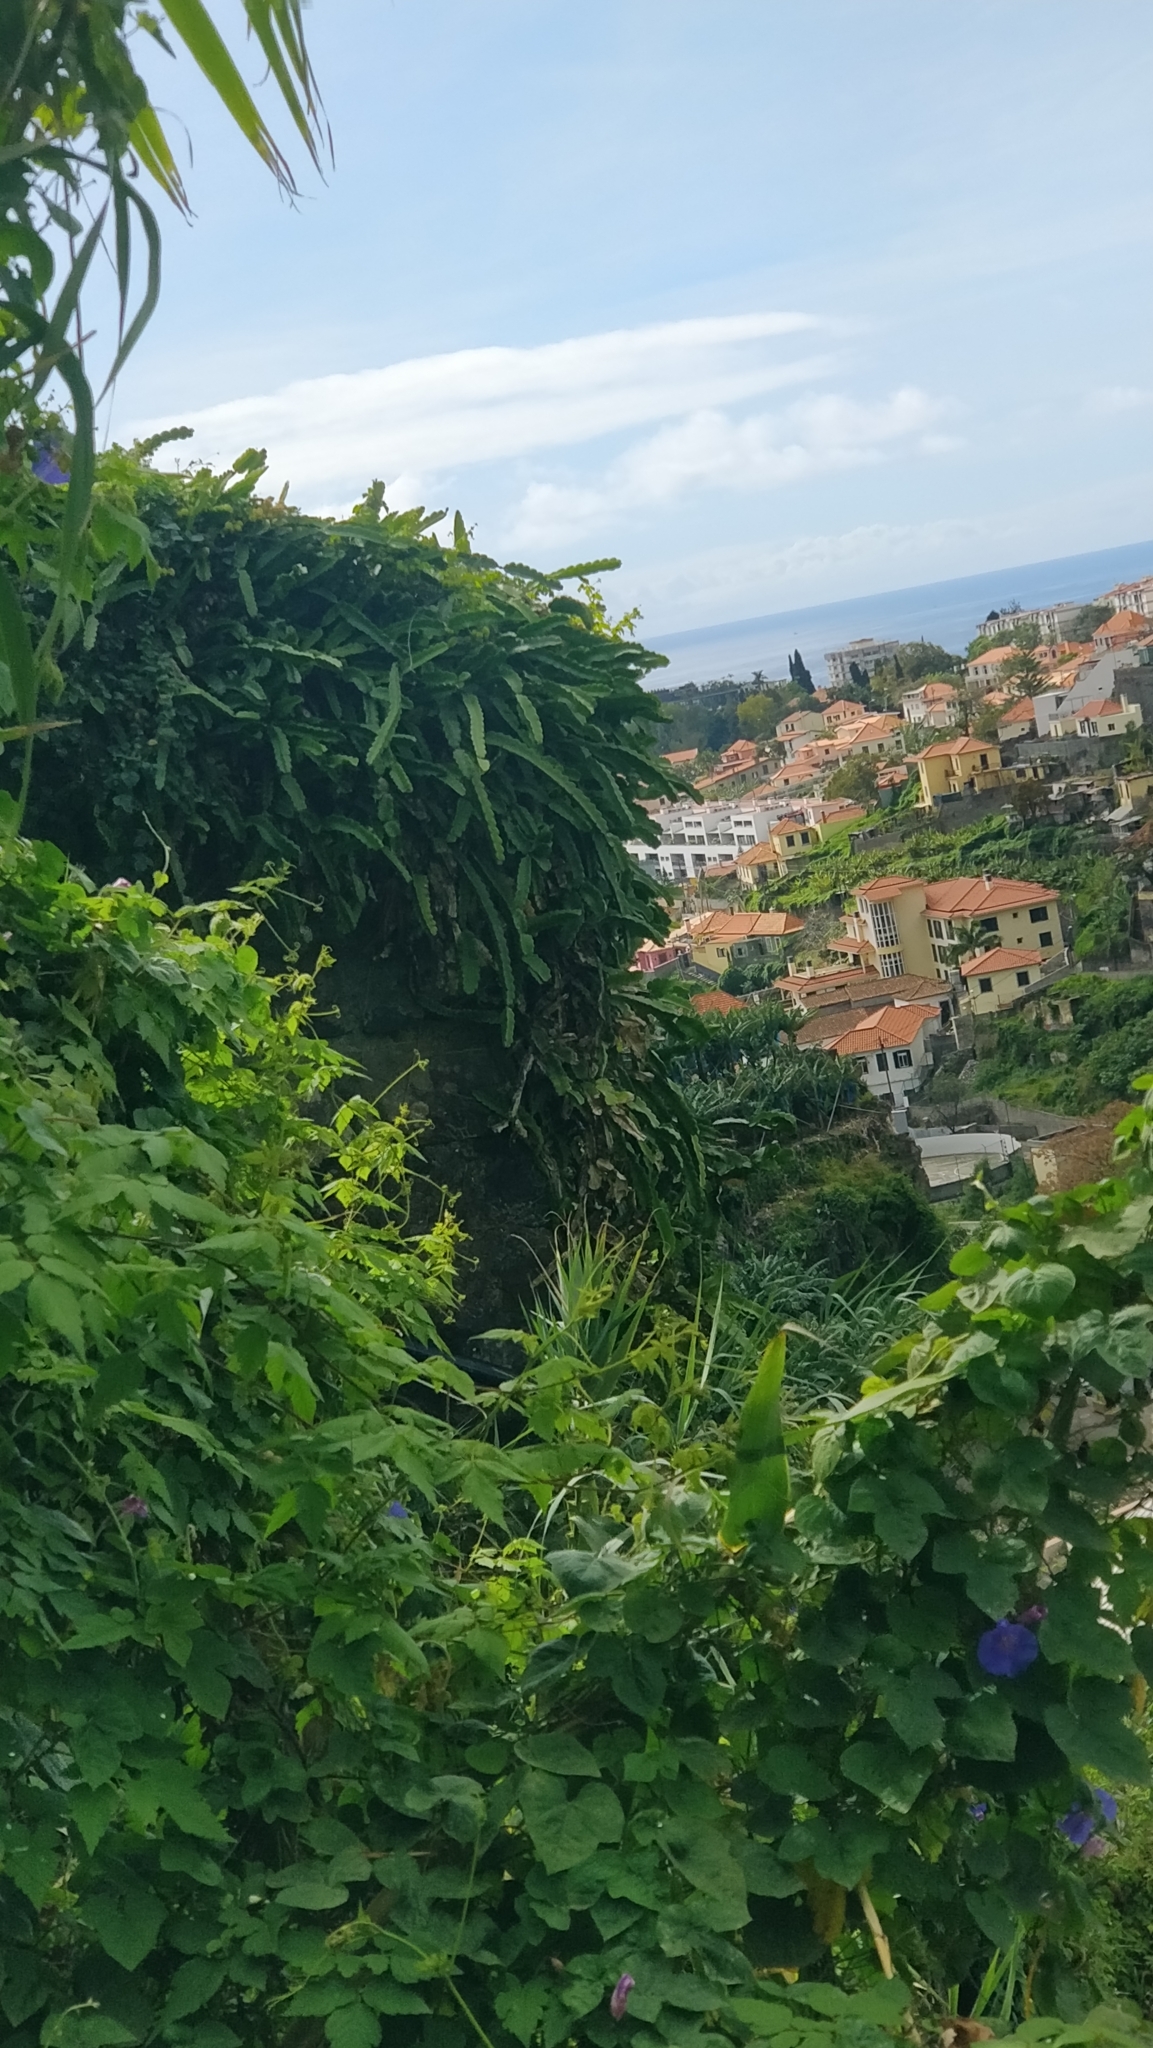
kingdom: Plantae
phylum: Tracheophyta
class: Magnoliopsida
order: Caryophyllales
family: Cactaceae
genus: Selenicereus
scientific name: Selenicereus undatus
